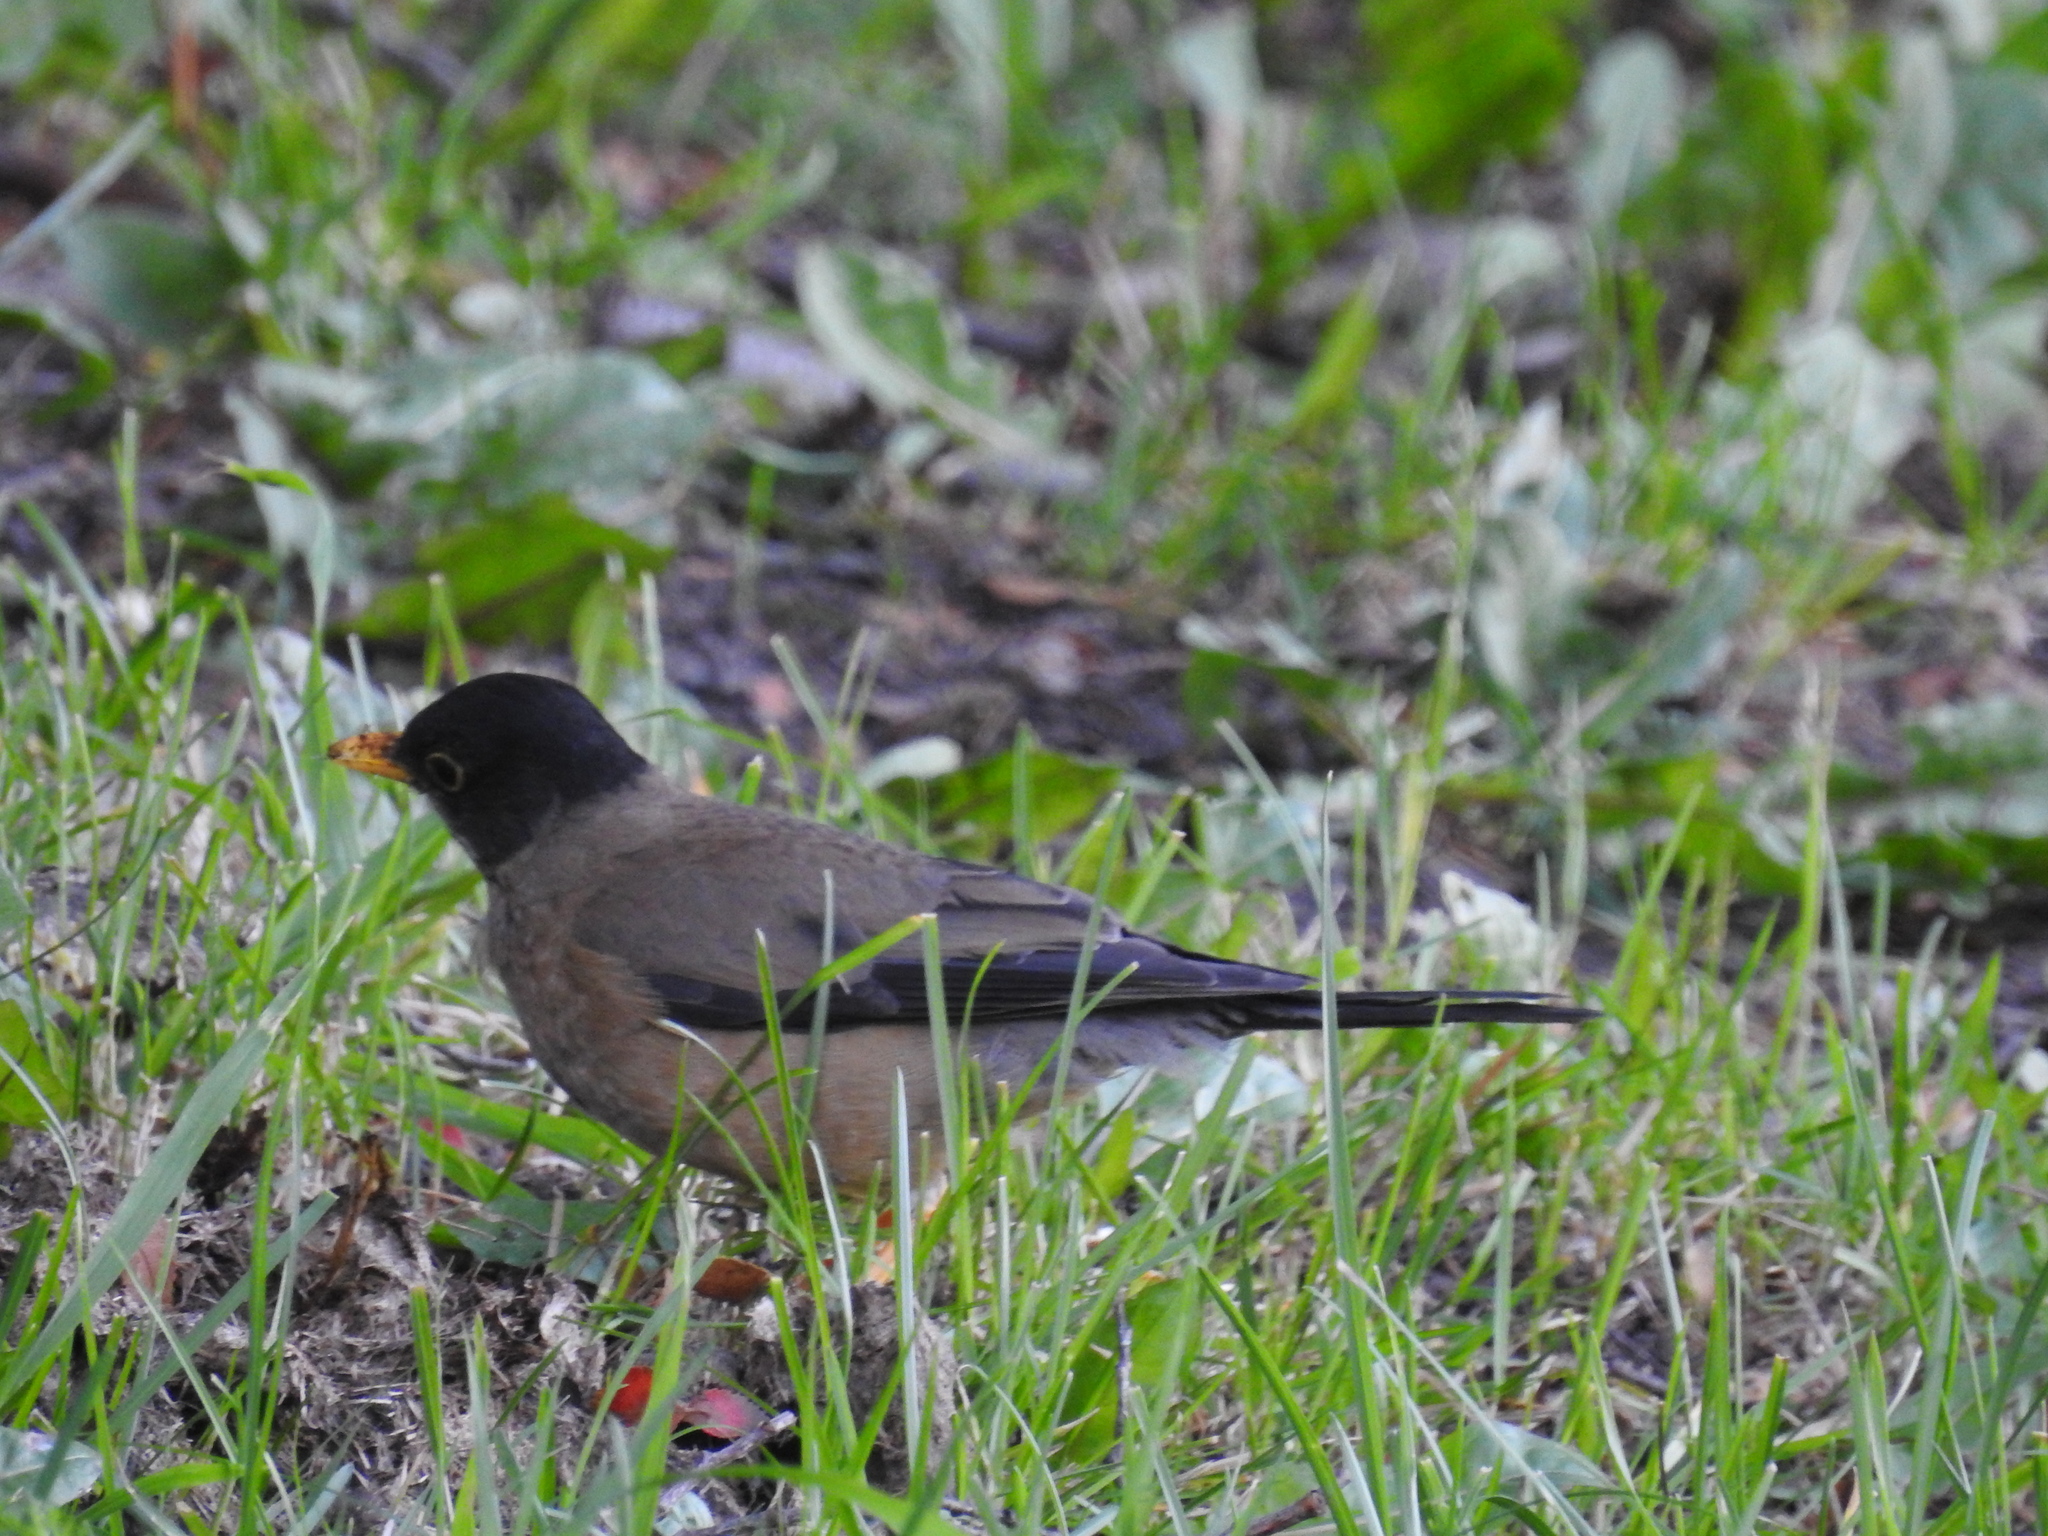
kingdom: Animalia
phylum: Chordata
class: Aves
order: Passeriformes
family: Turdidae
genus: Turdus
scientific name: Turdus falcklandii
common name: Austral thrush
